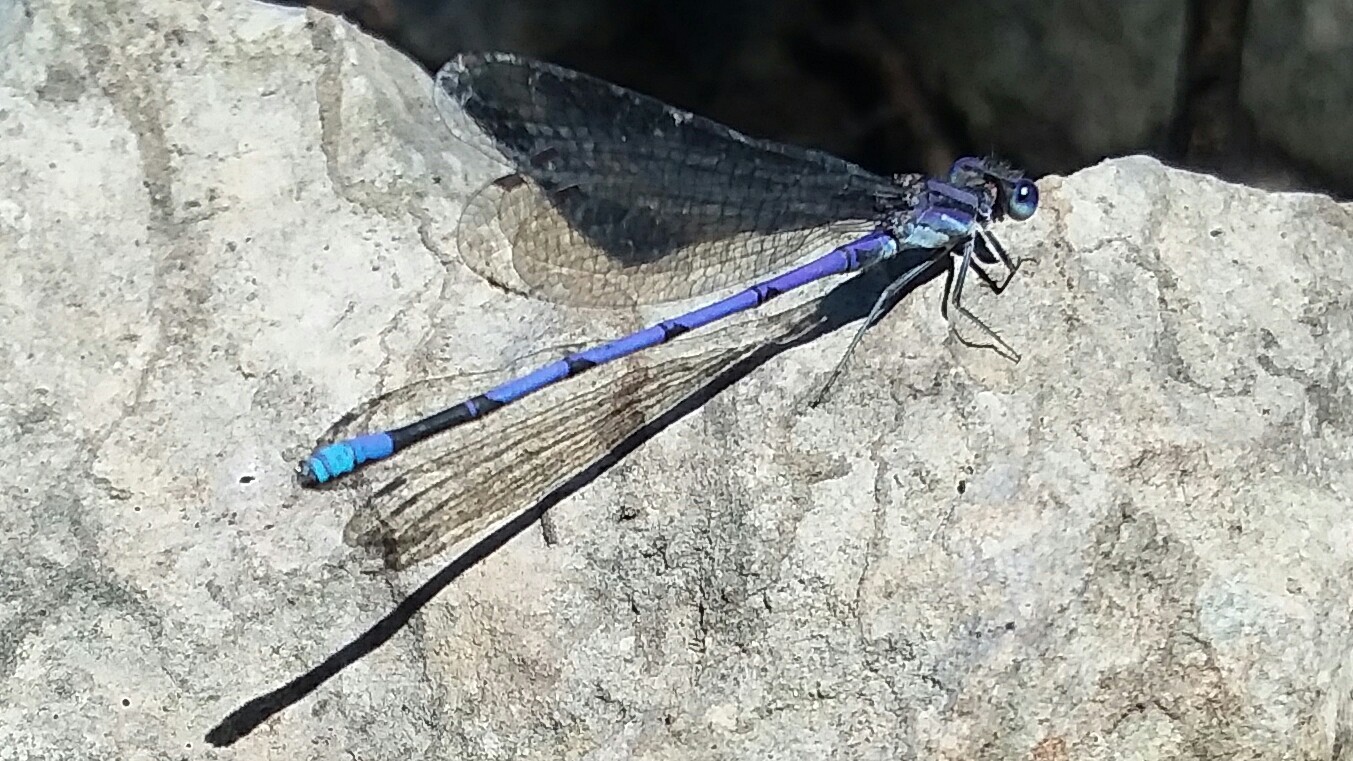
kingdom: Animalia
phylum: Arthropoda
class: Insecta
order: Odonata
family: Coenagrionidae
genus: Argia
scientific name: Argia fumipennis
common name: Variable dancer
